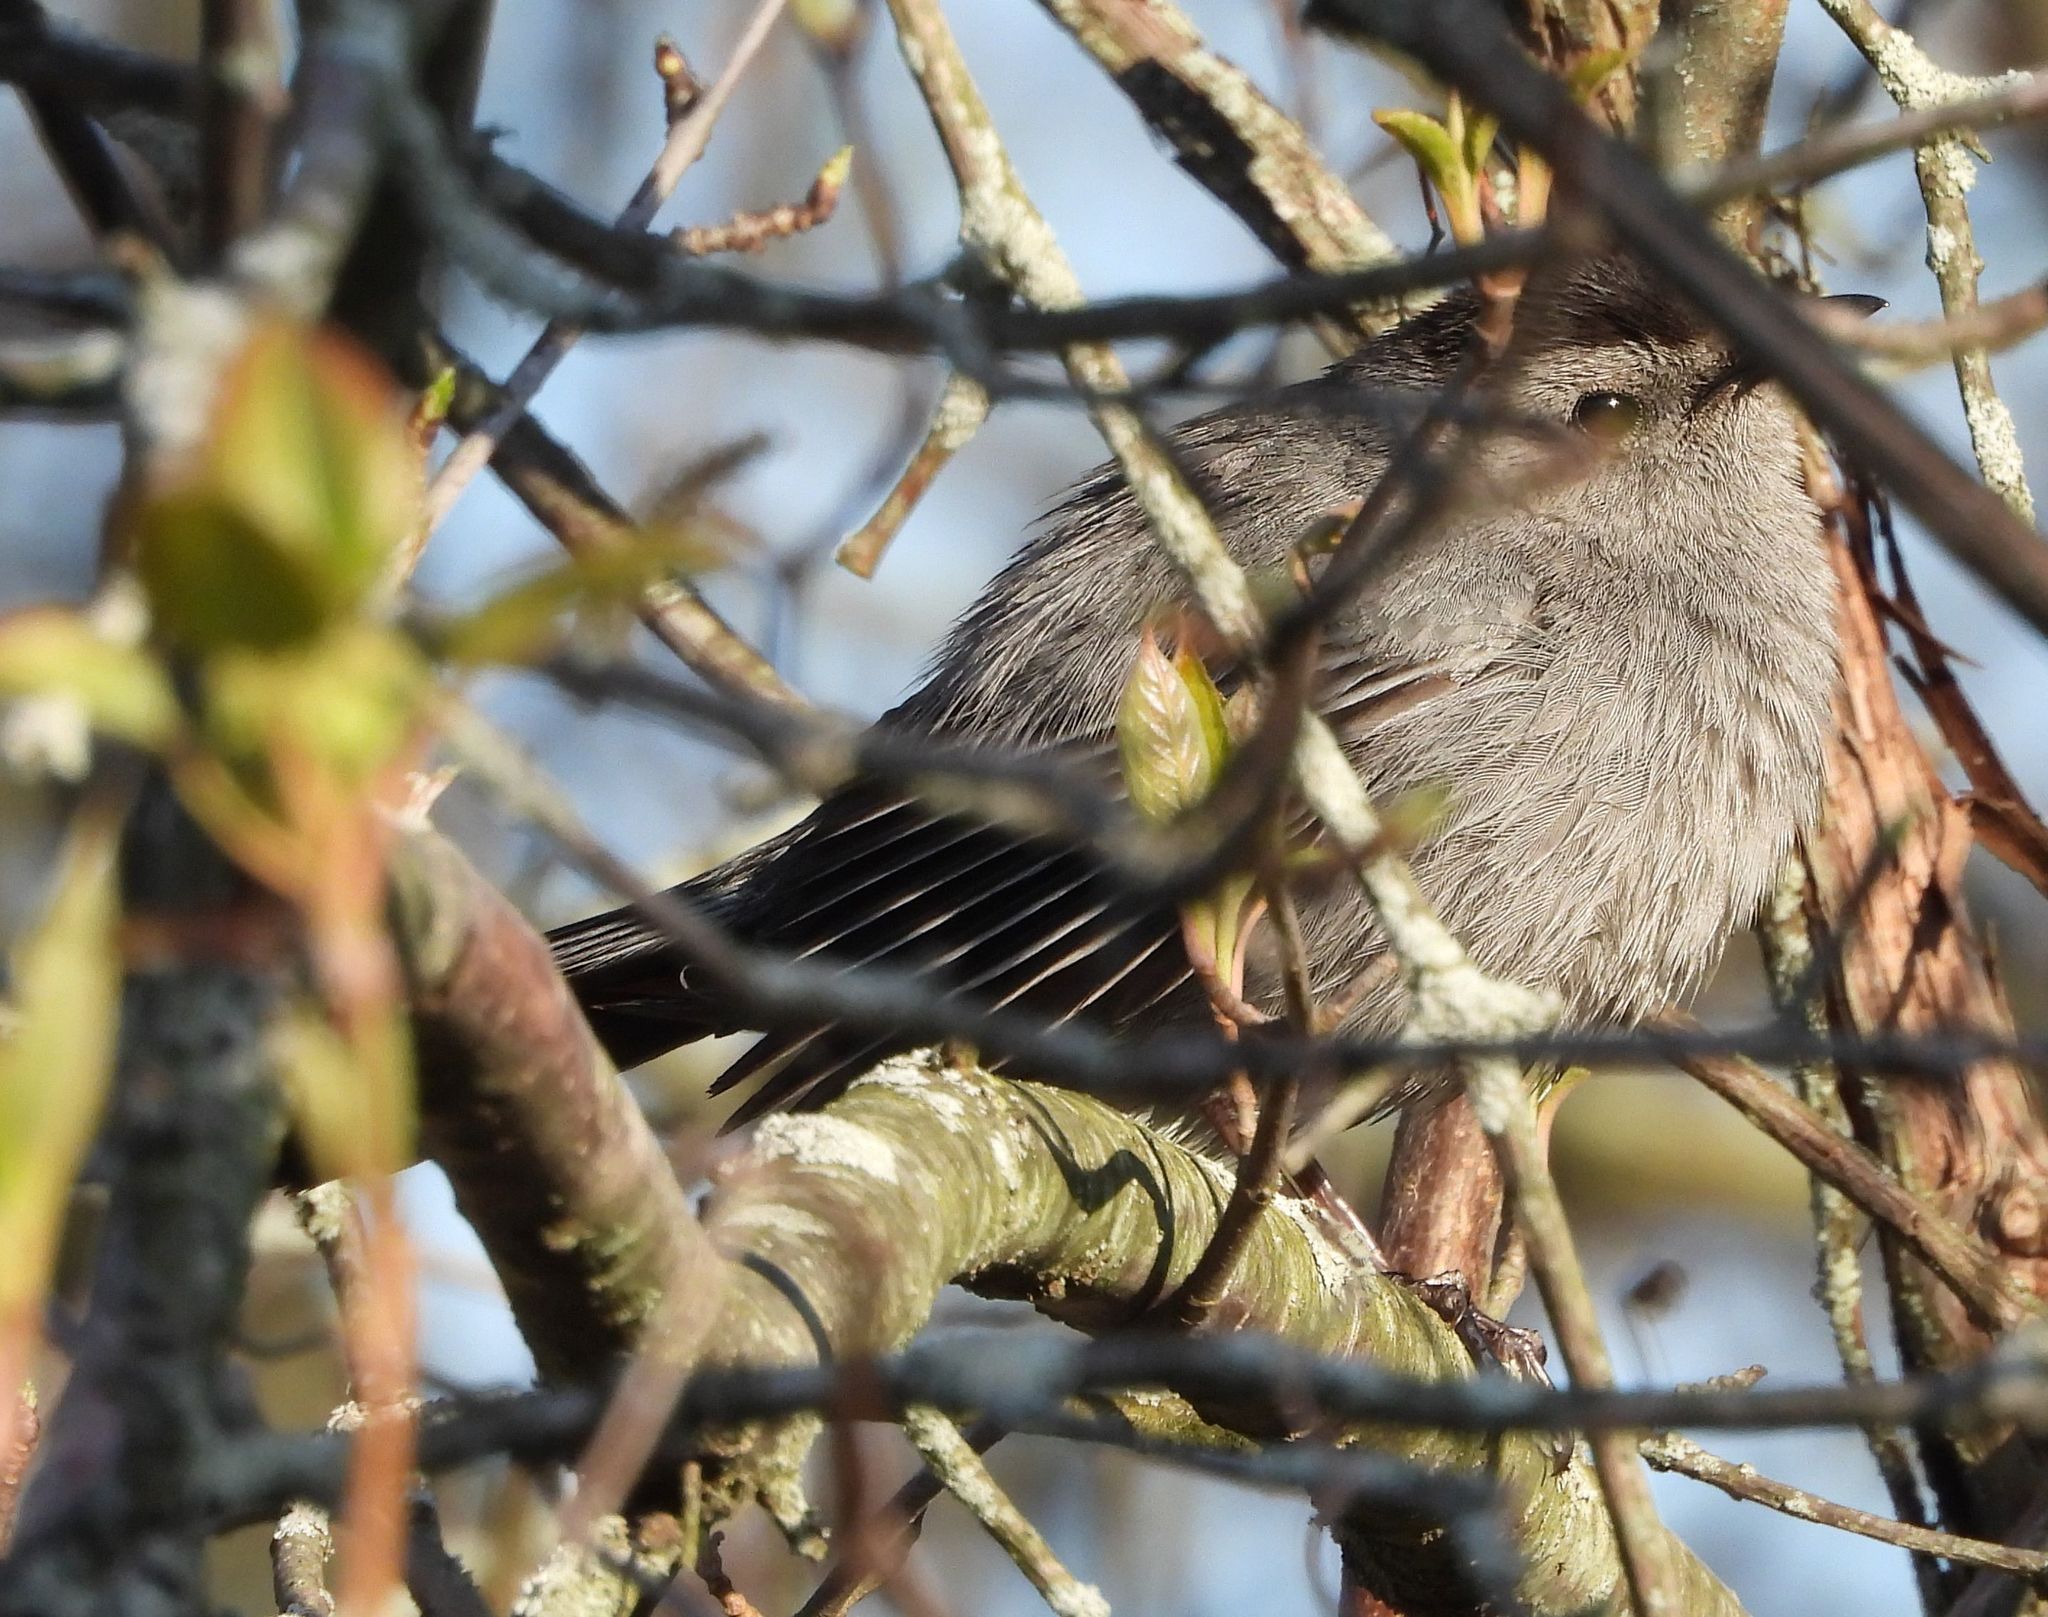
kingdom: Animalia
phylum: Chordata
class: Aves
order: Passeriformes
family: Mimidae
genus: Dumetella
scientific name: Dumetella carolinensis
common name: Gray catbird
